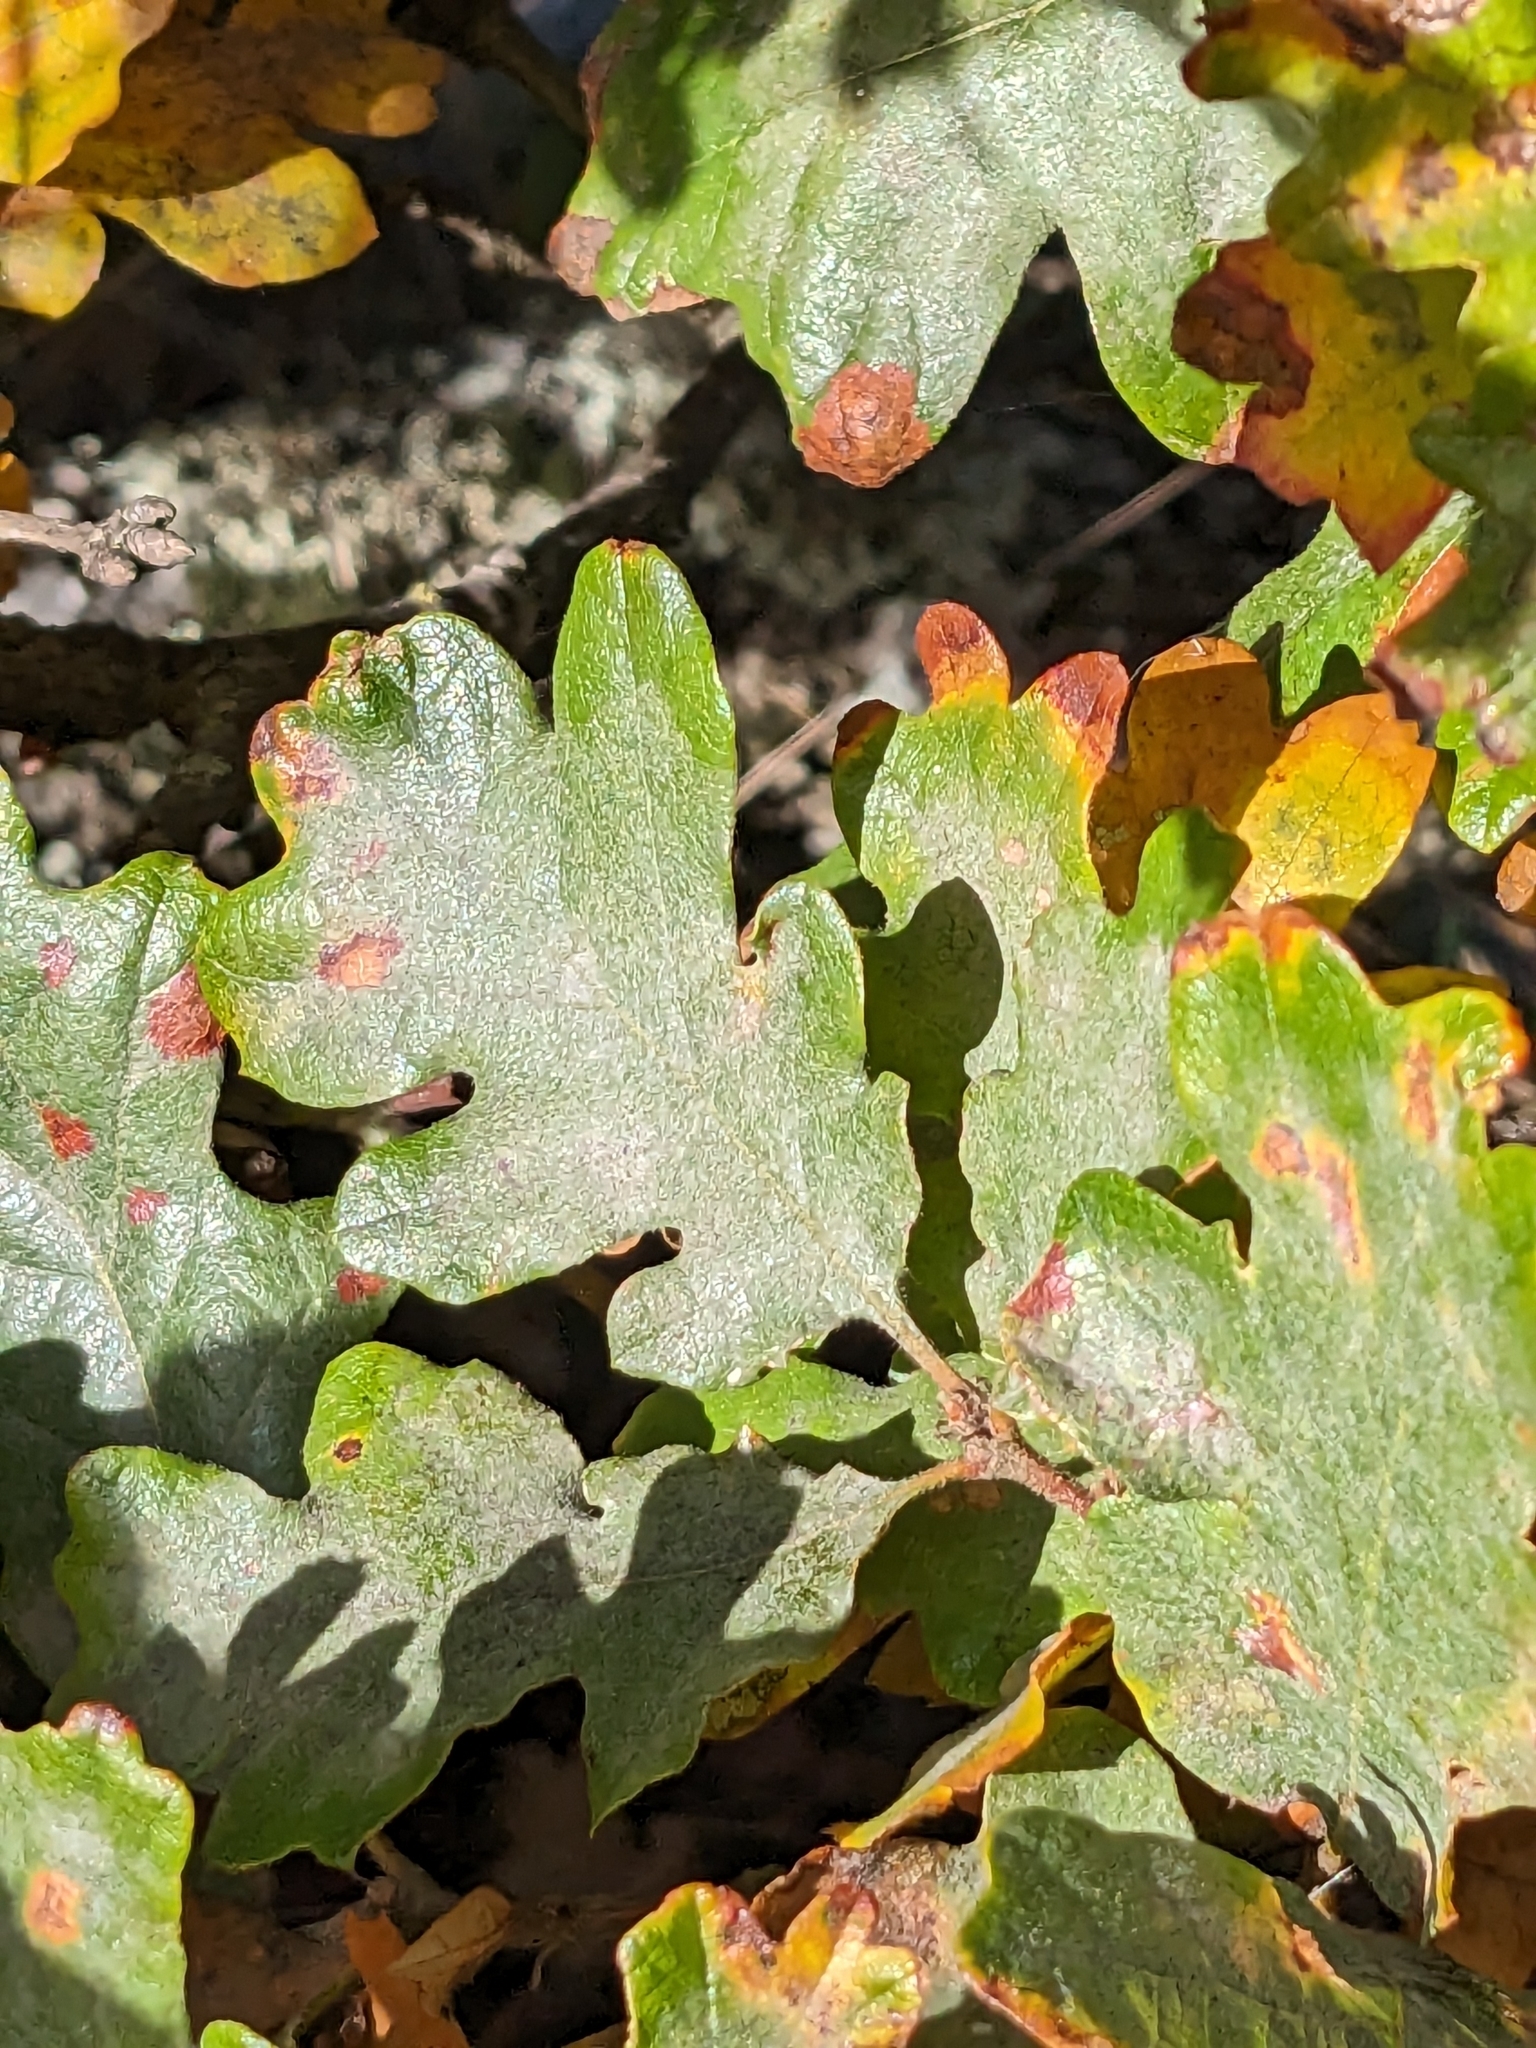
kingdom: Plantae
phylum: Tracheophyta
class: Magnoliopsida
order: Fagales
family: Fagaceae
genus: Quercus
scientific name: Quercus garryana
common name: Garry oak
